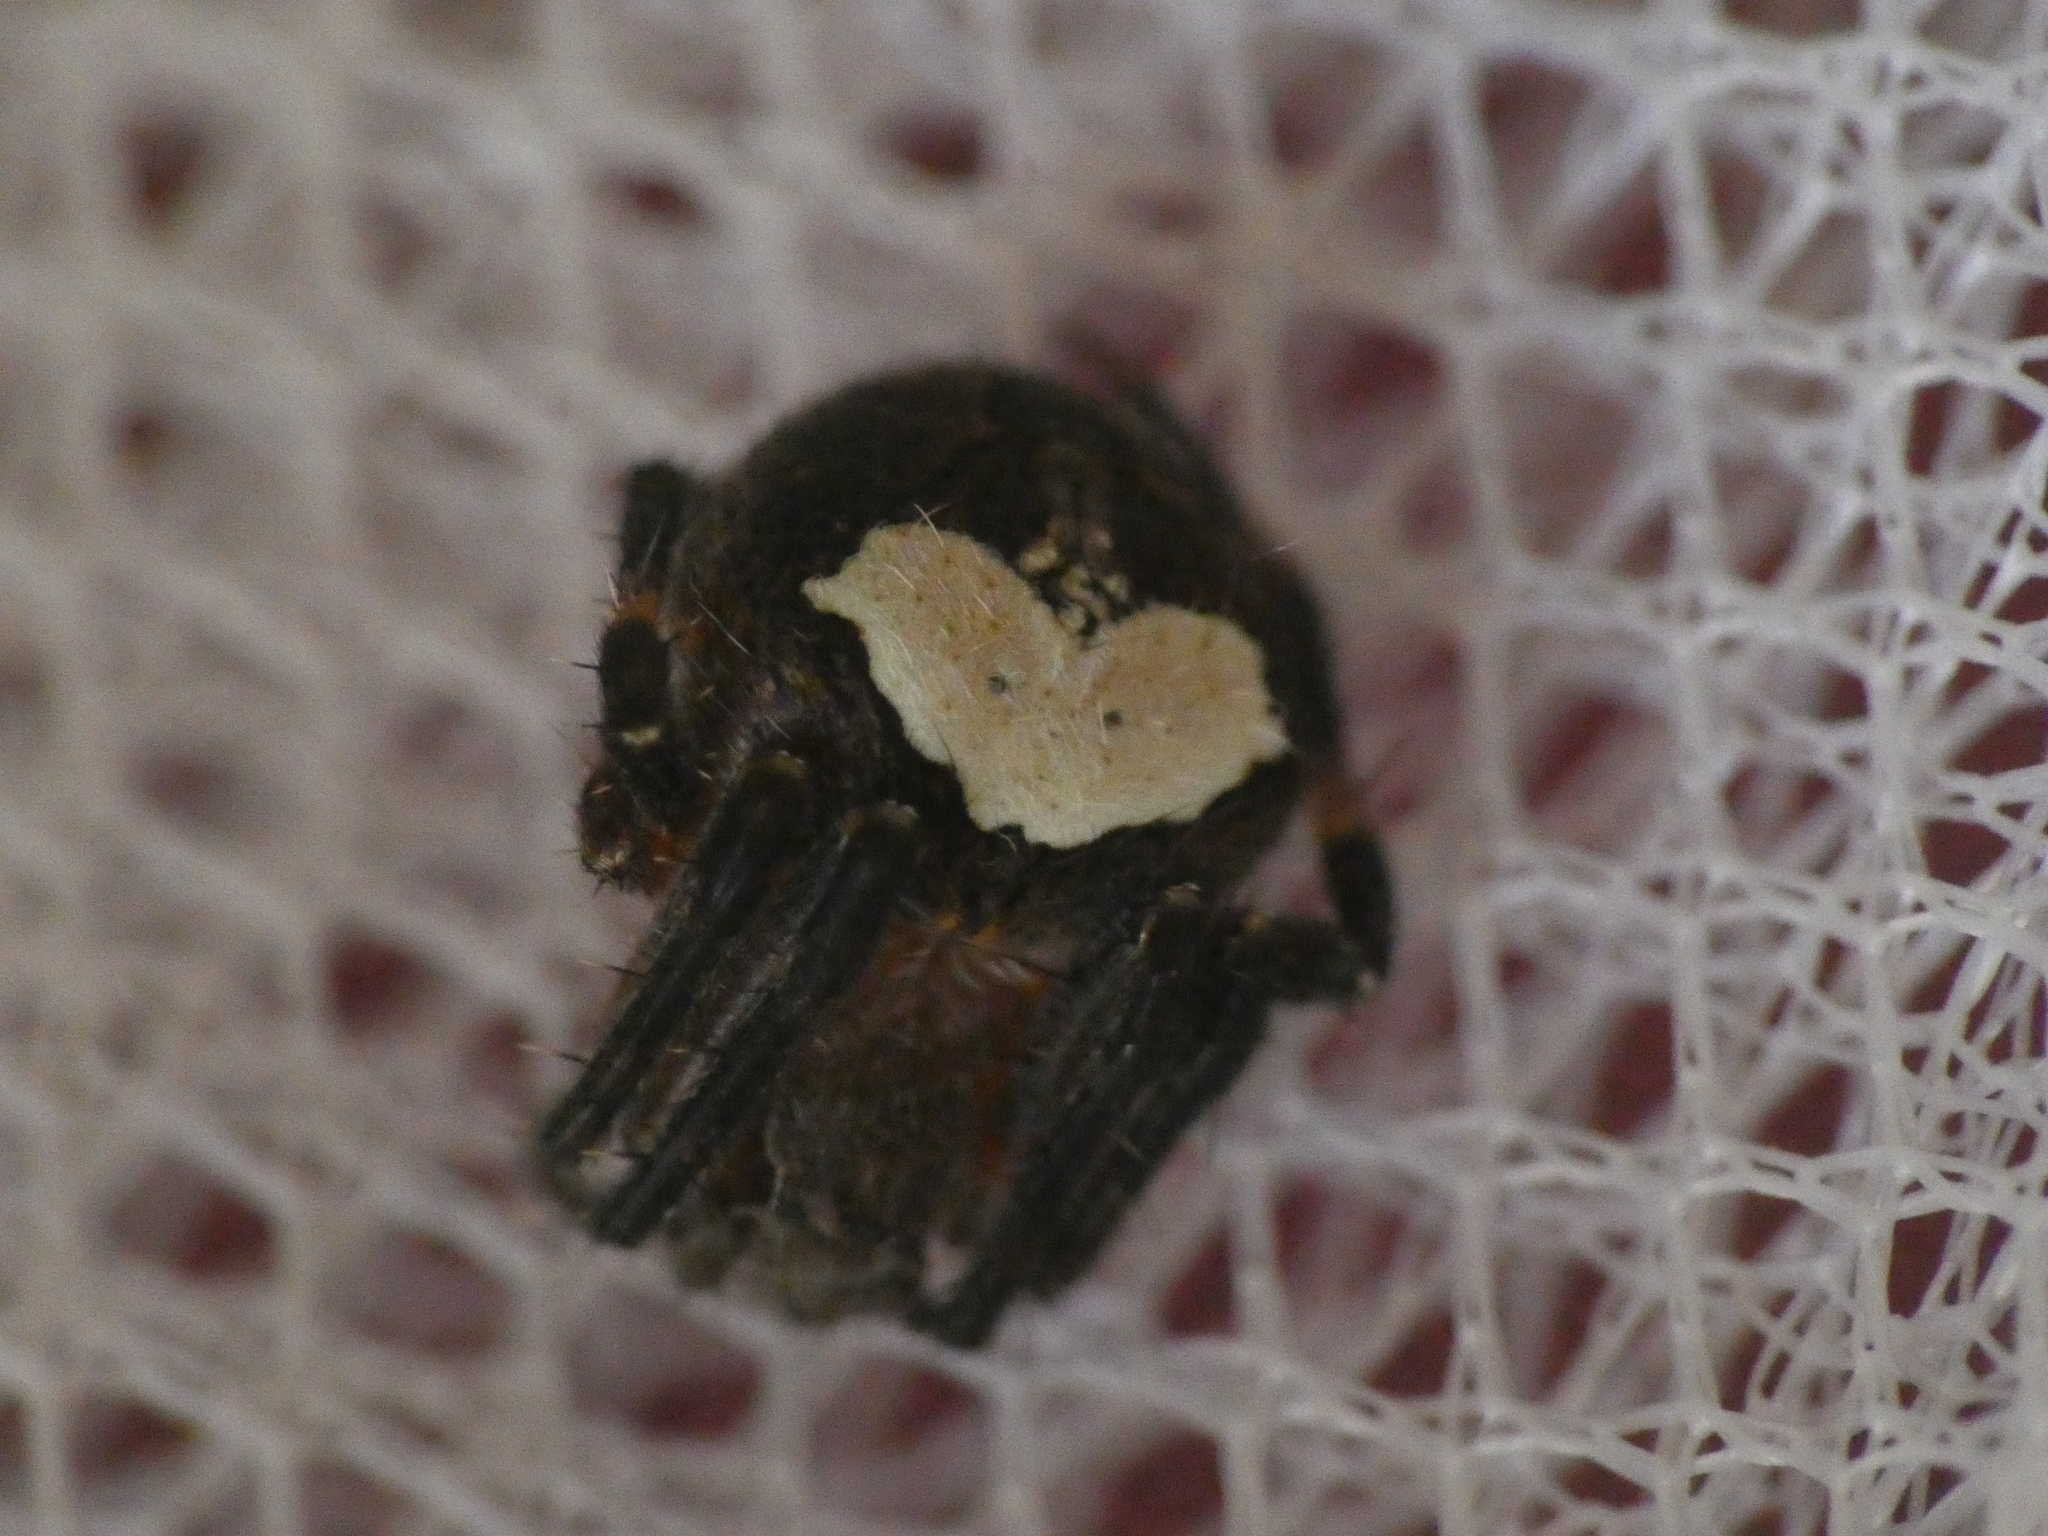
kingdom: Animalia
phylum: Arthropoda
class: Arachnida
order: Araneae
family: Araneidae
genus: Neoscona
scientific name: Neoscona subfusca
